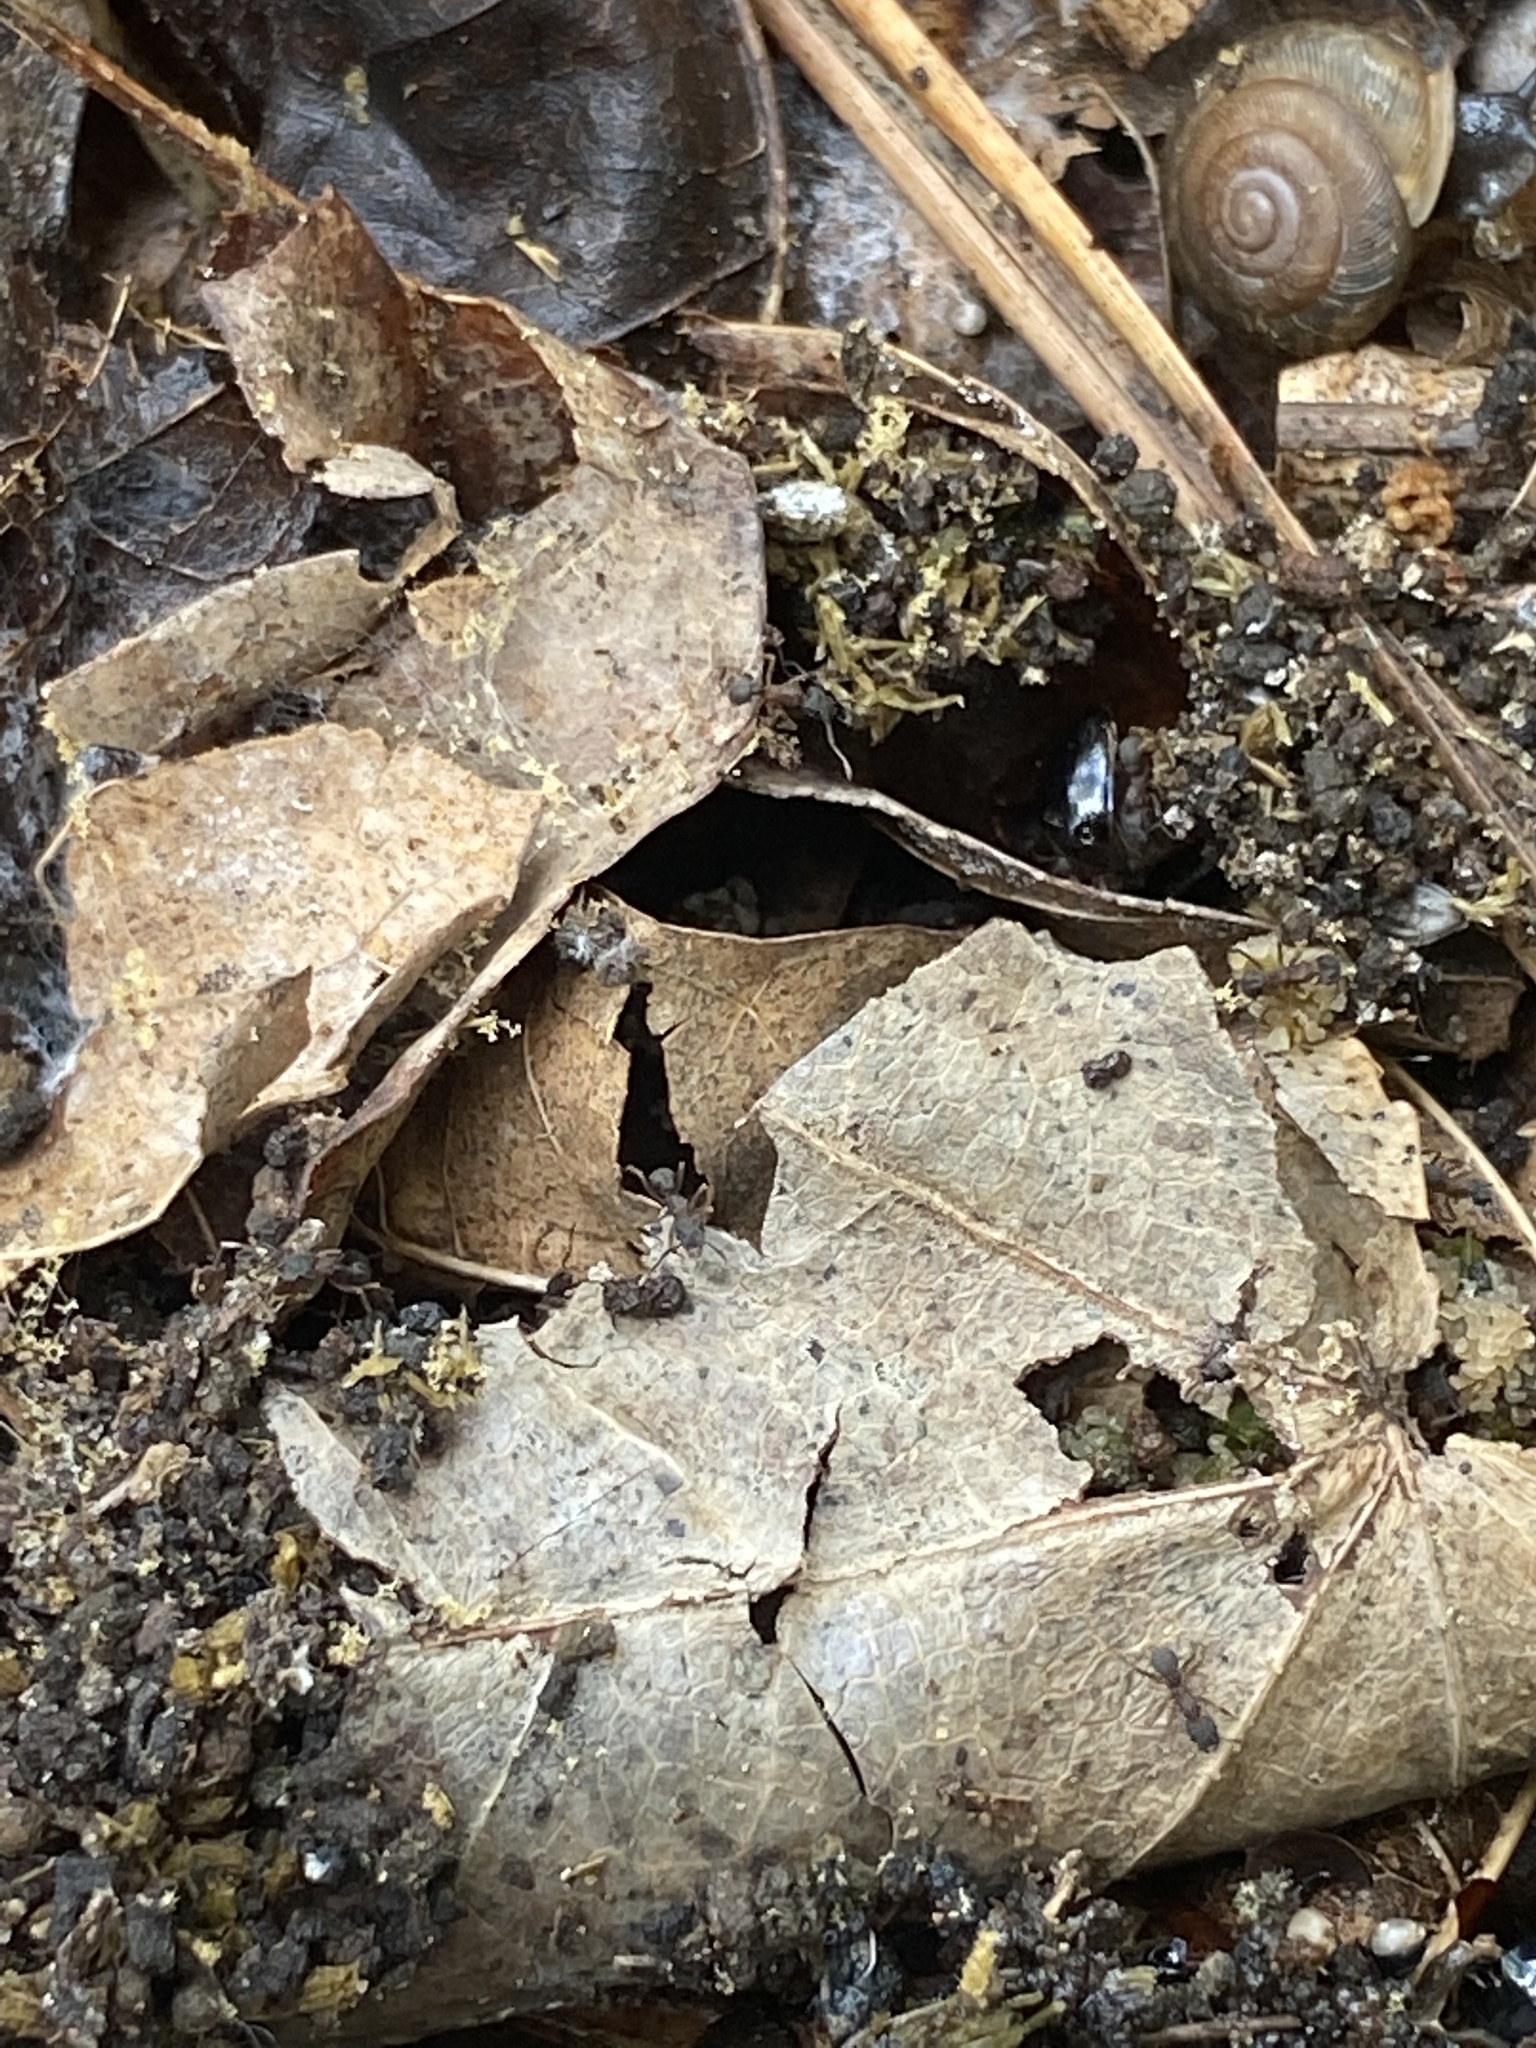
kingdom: Animalia
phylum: Arthropoda
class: Insecta
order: Hymenoptera
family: Formicidae
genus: Cyphomyrmex
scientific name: Cyphomyrmex rimosus
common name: Rimose fungus ant
